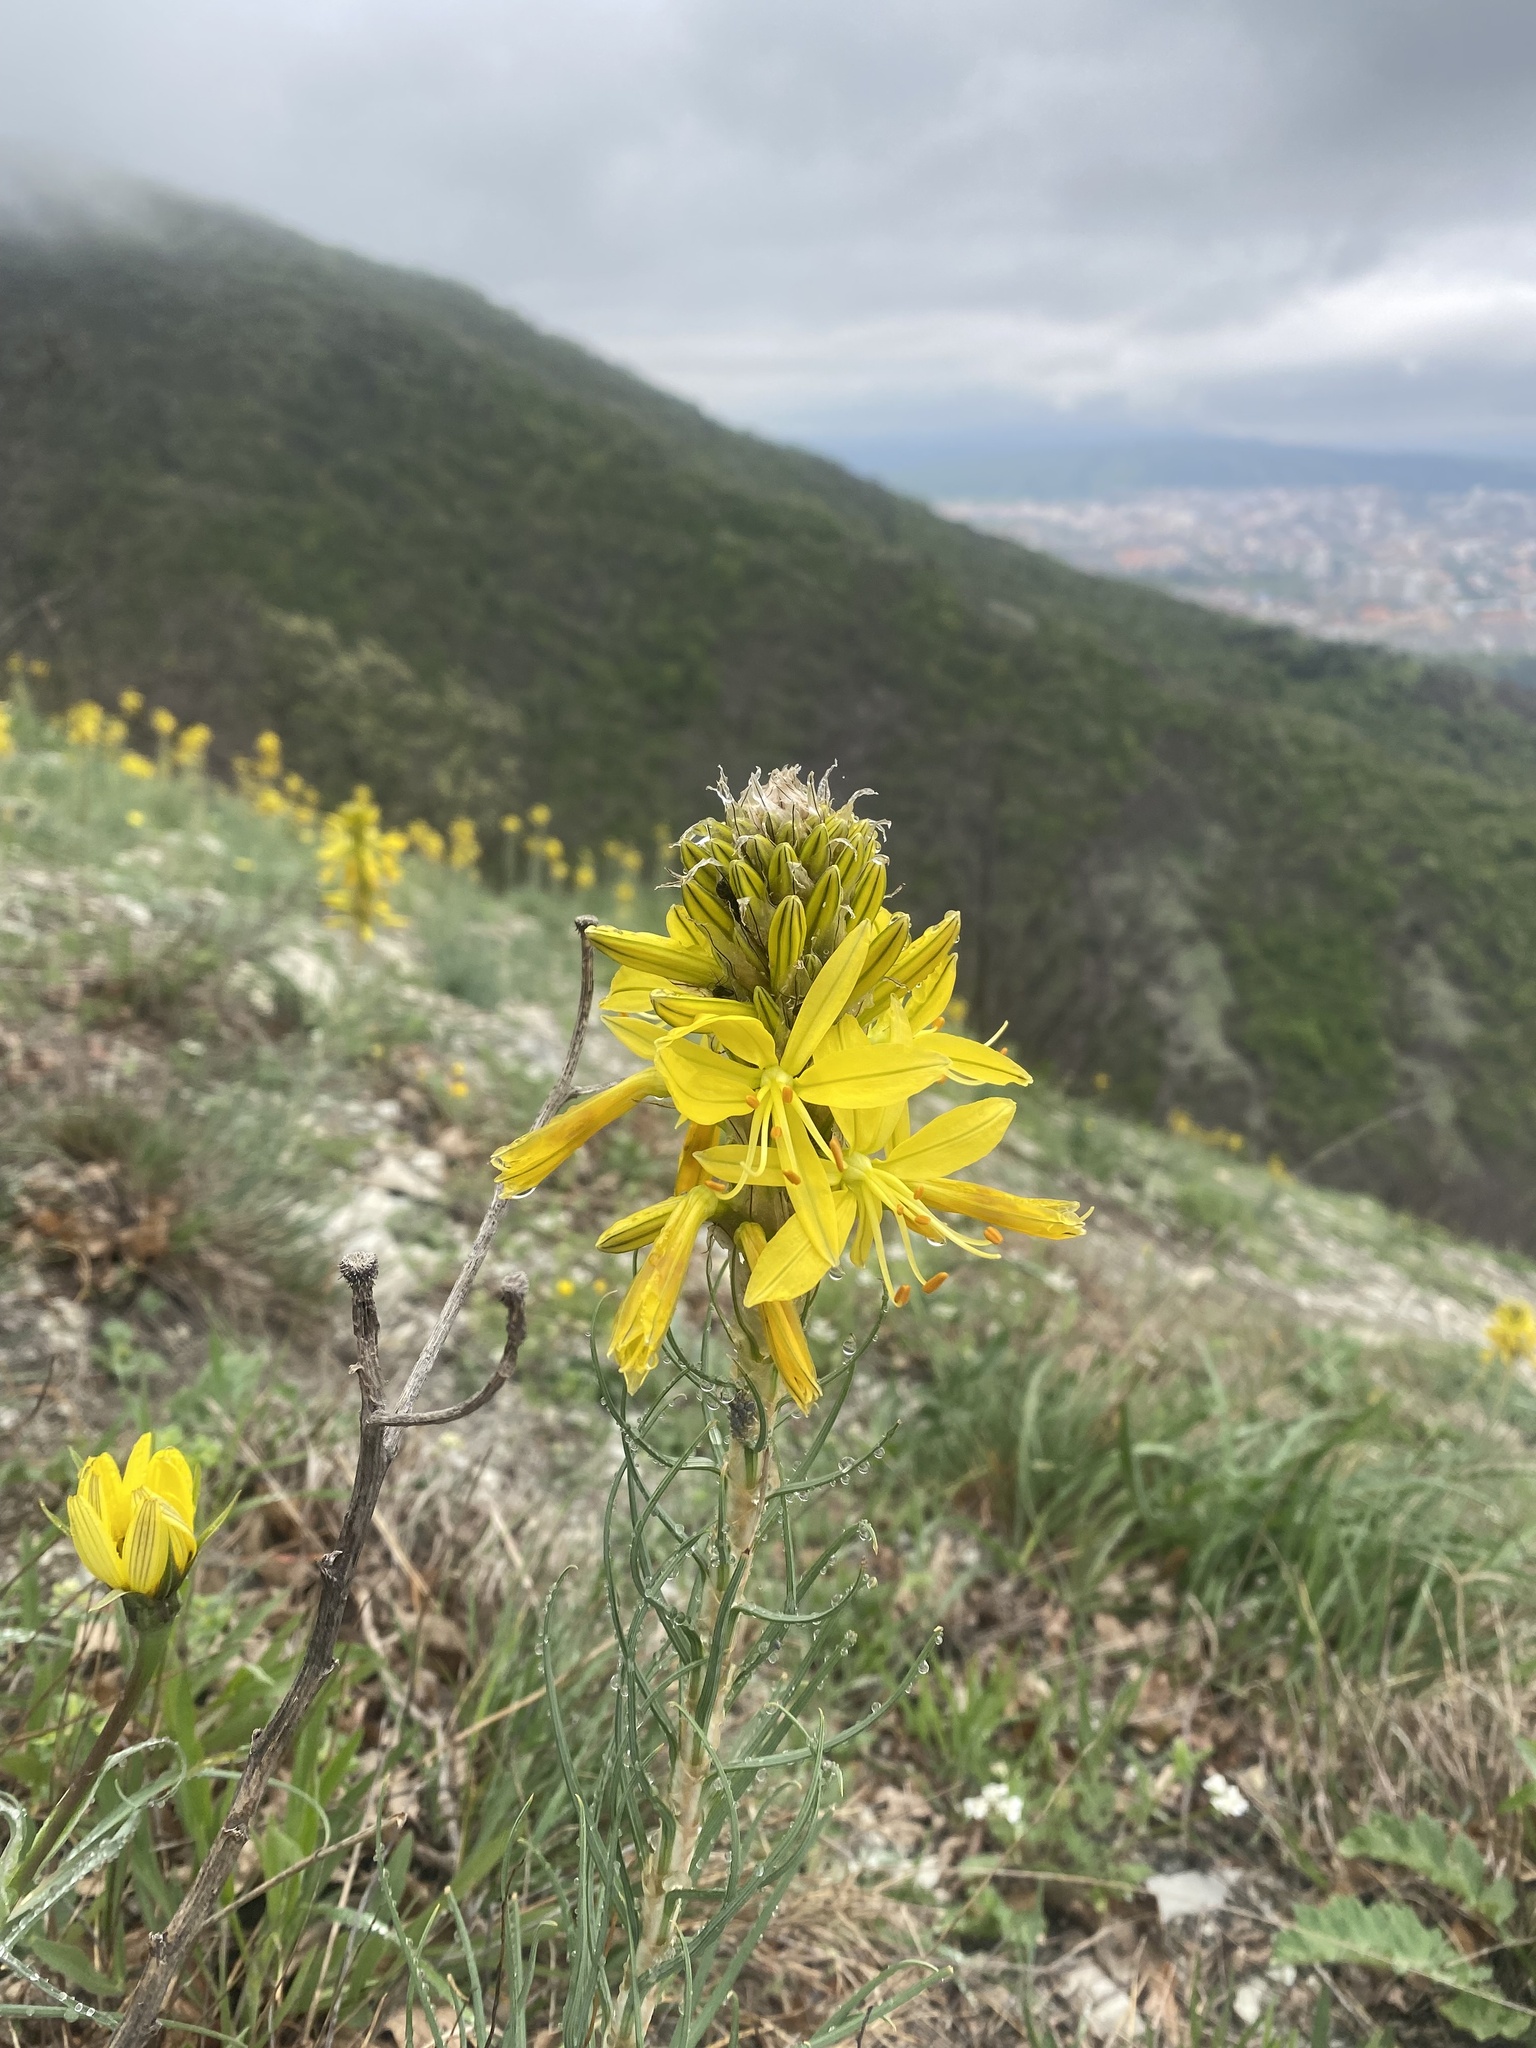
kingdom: Plantae
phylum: Tracheophyta
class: Liliopsida
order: Asparagales
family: Asphodelaceae
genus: Asphodeline
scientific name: Asphodeline lutea
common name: Yellow asphodel
